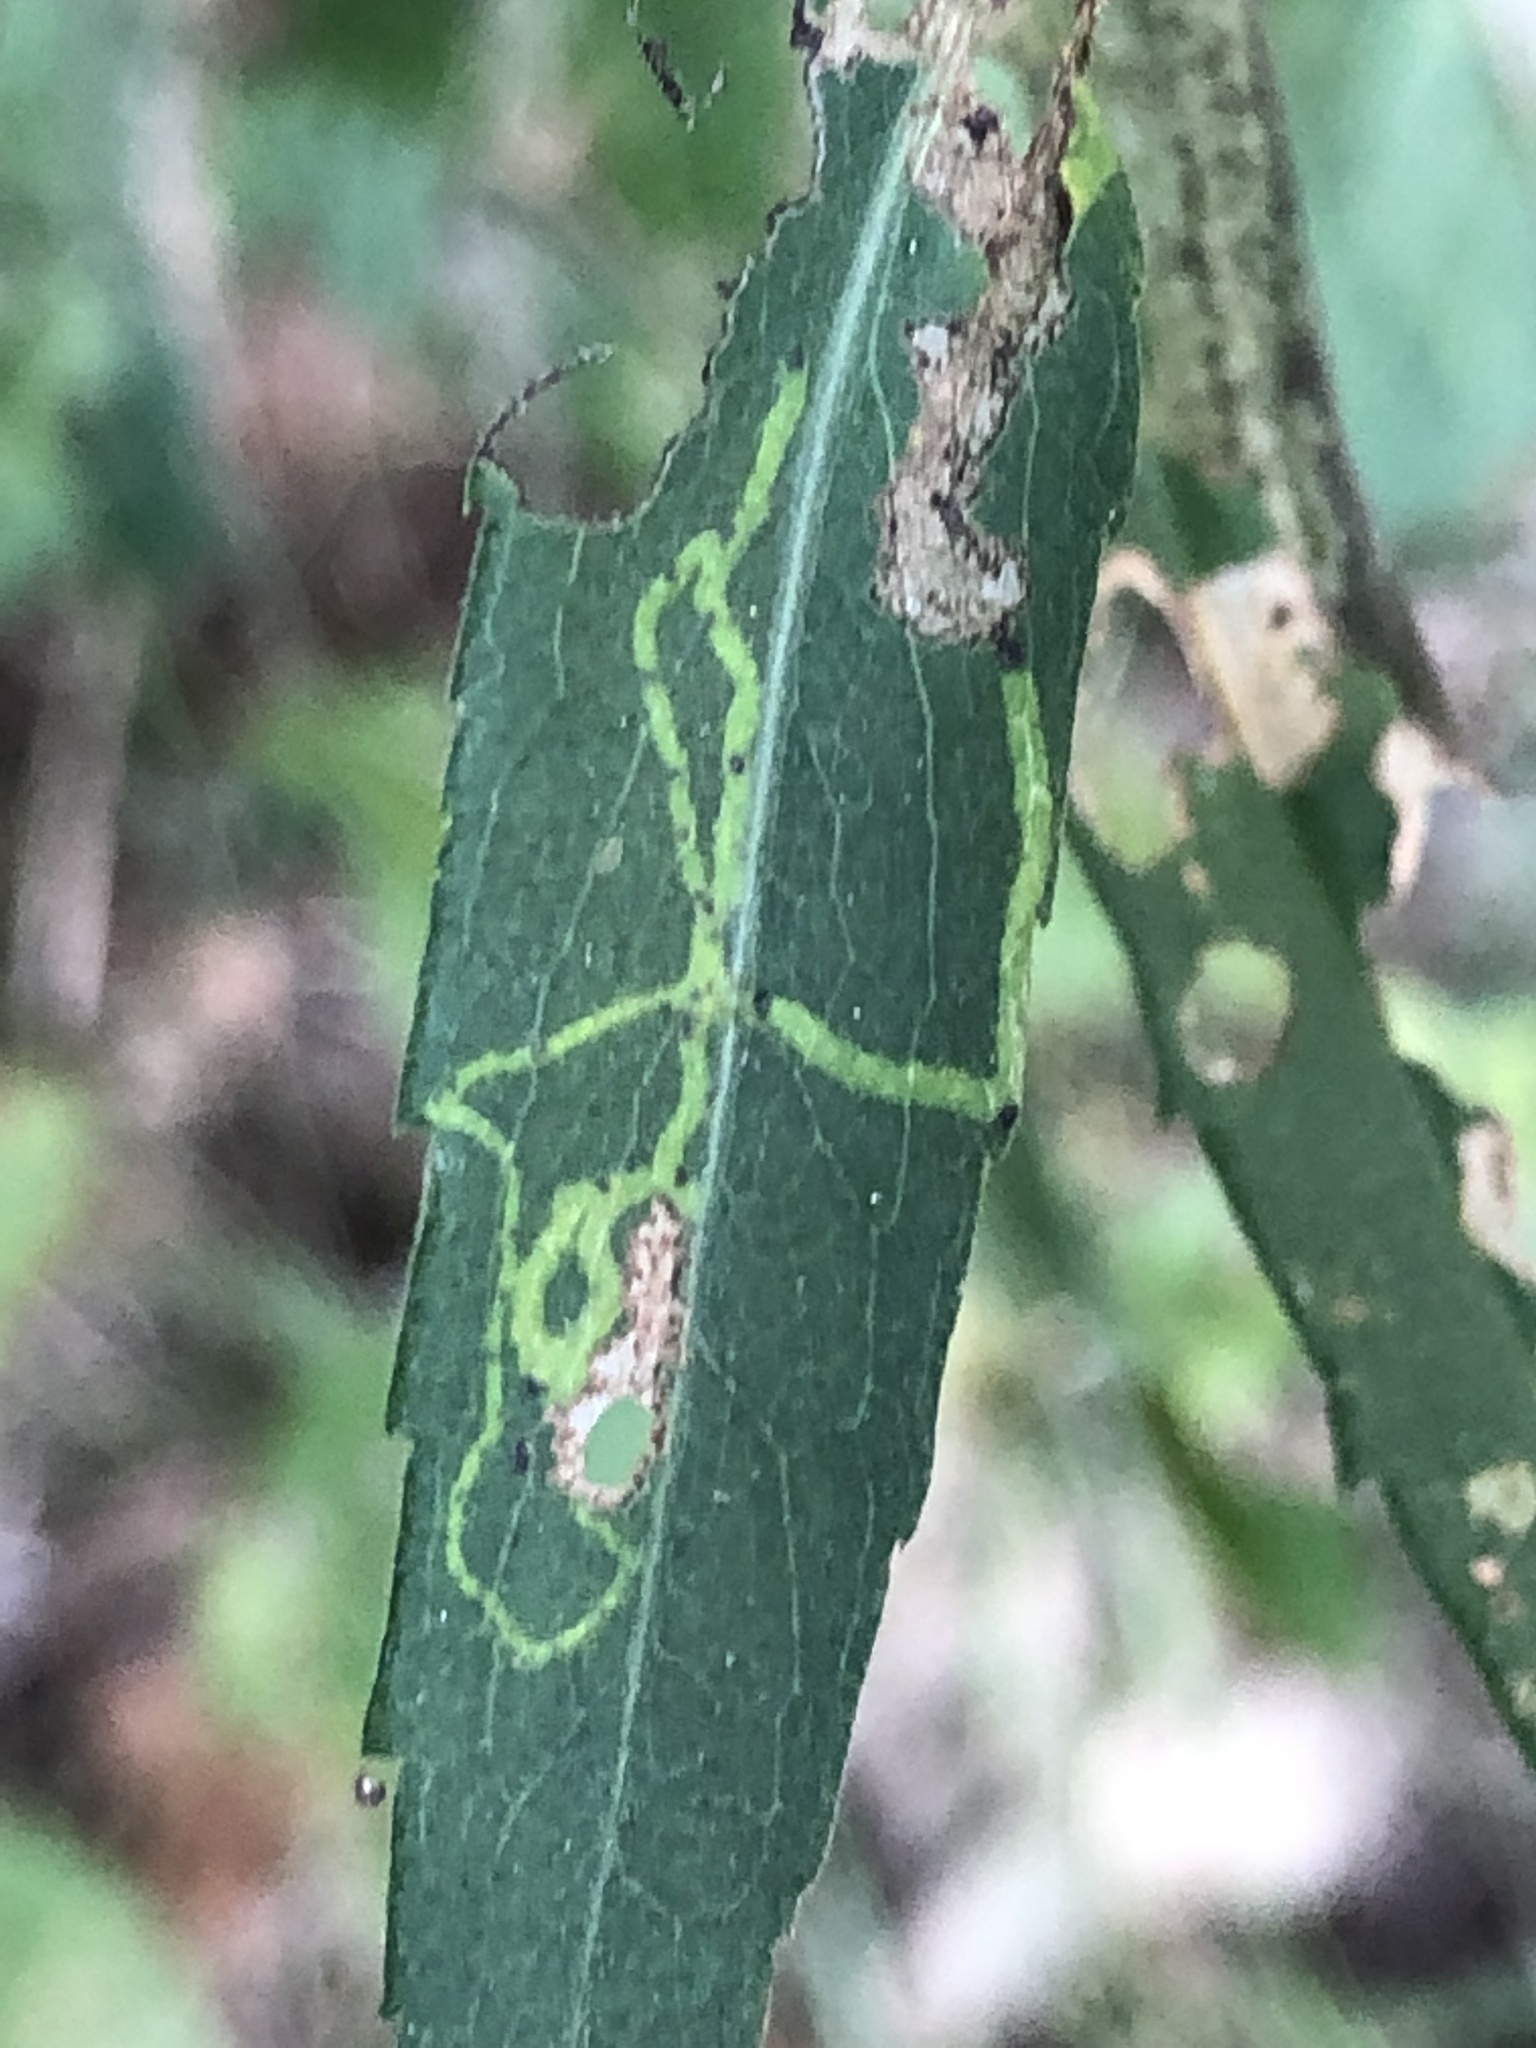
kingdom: Animalia
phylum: Arthropoda
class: Insecta
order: Diptera
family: Agromyzidae
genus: Ophiomyia
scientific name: Ophiomyia parda
